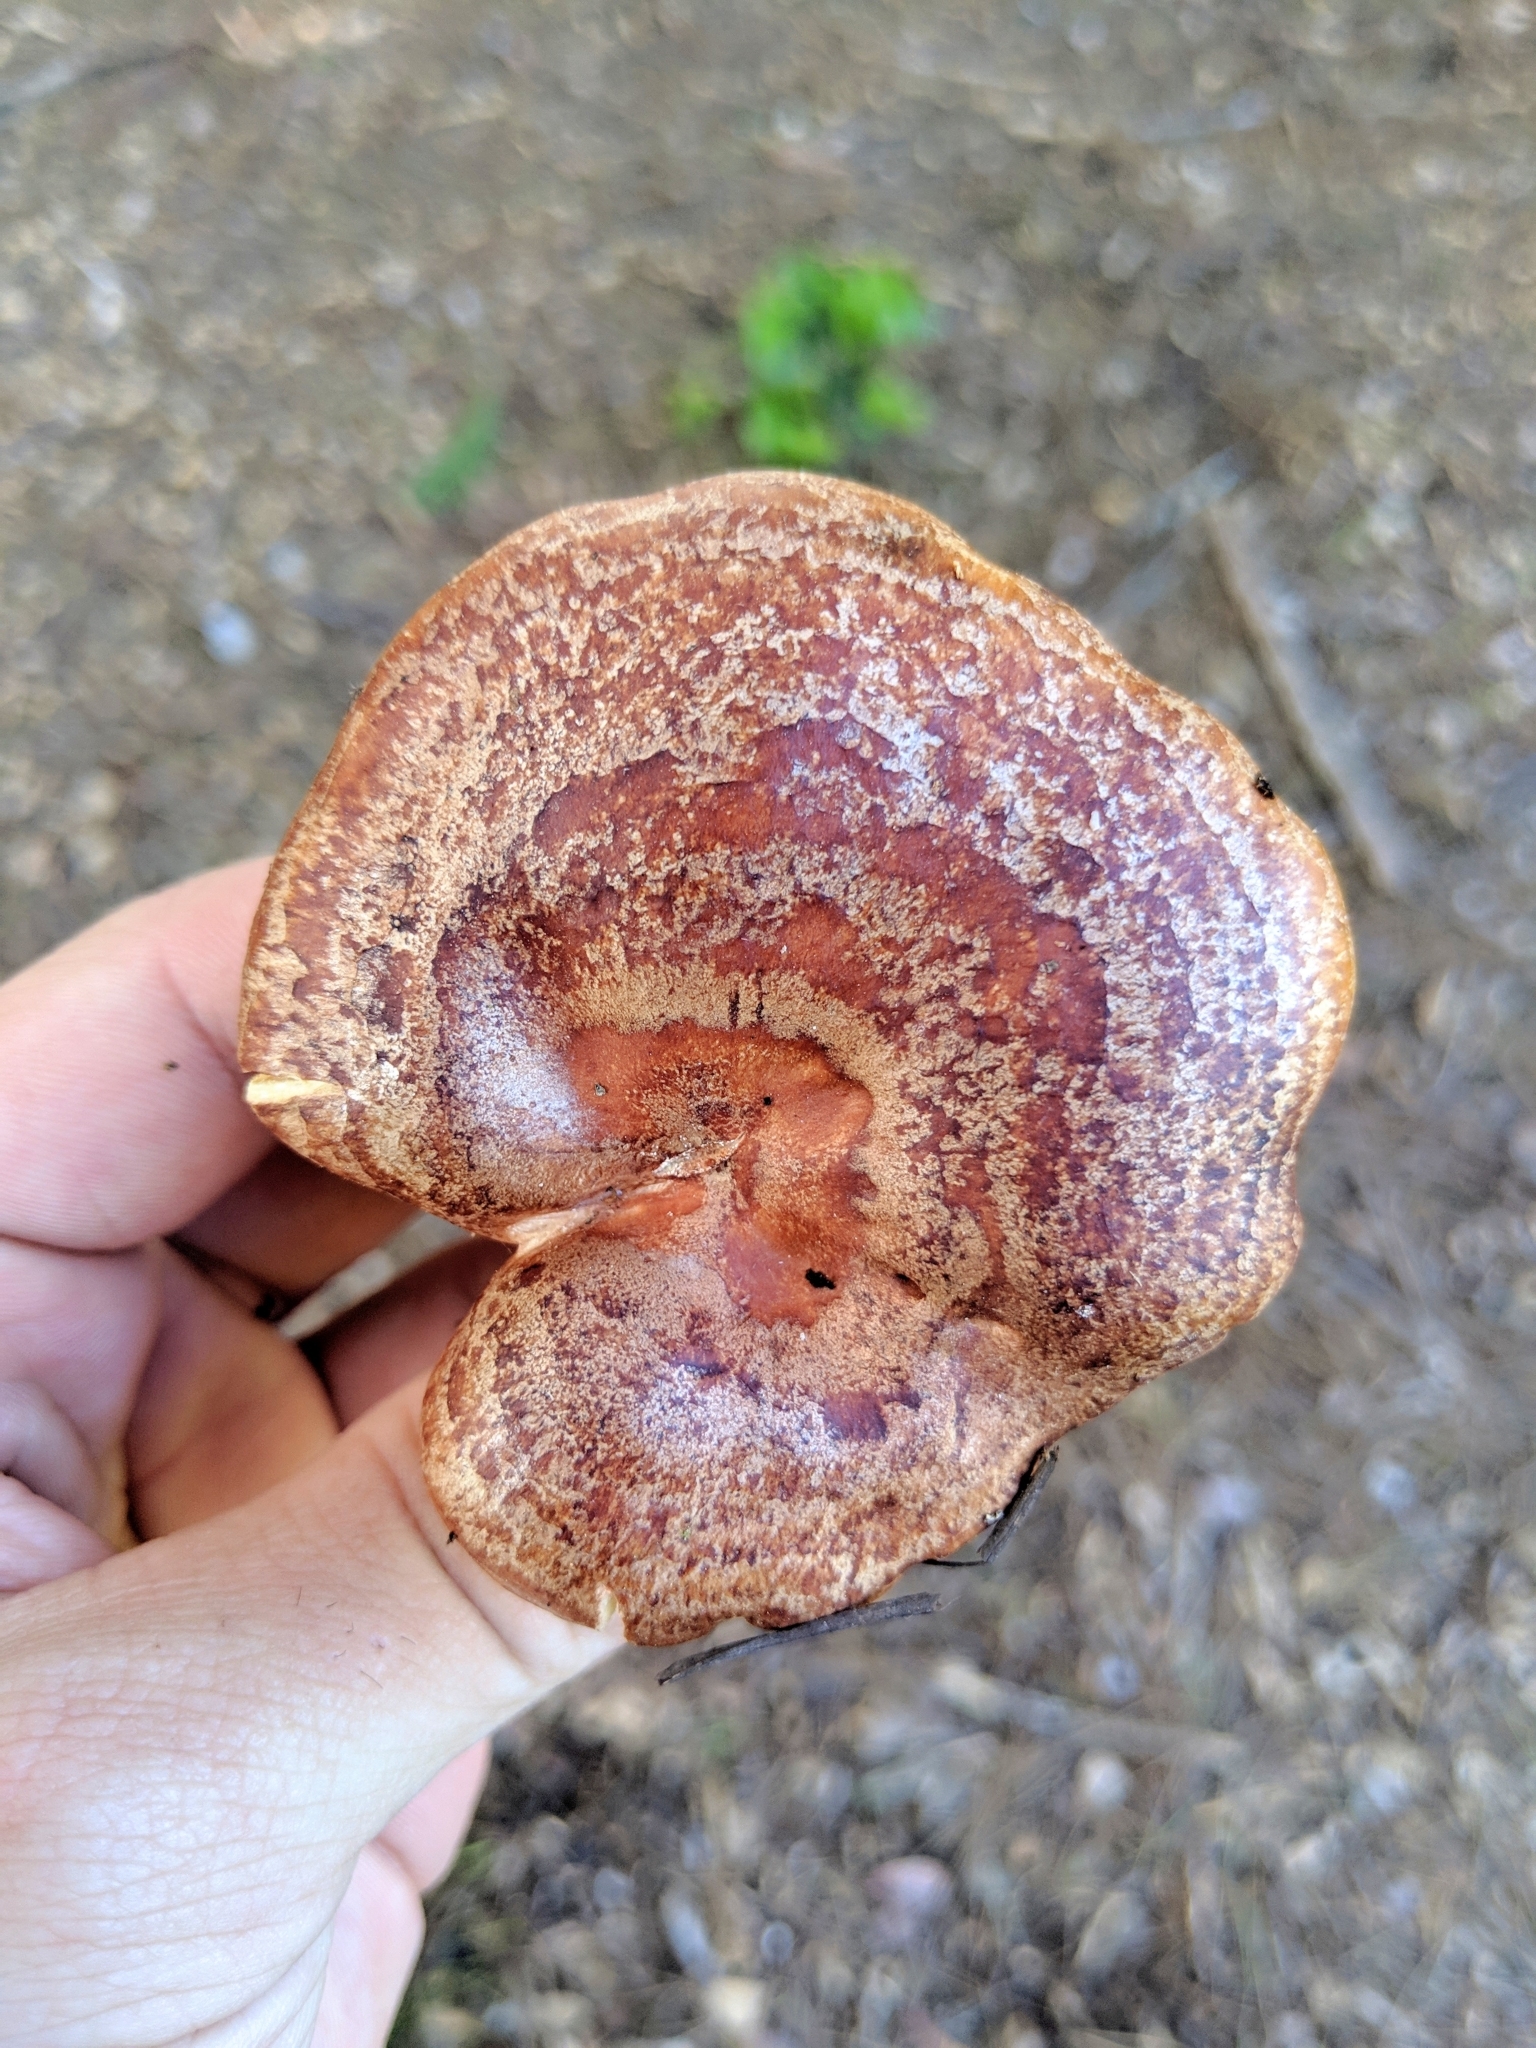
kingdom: Fungi
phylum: Basidiomycota
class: Agaricomycetes
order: Russulales
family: Russulaceae
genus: Lactarius
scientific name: Lactarius xanthogalactus
